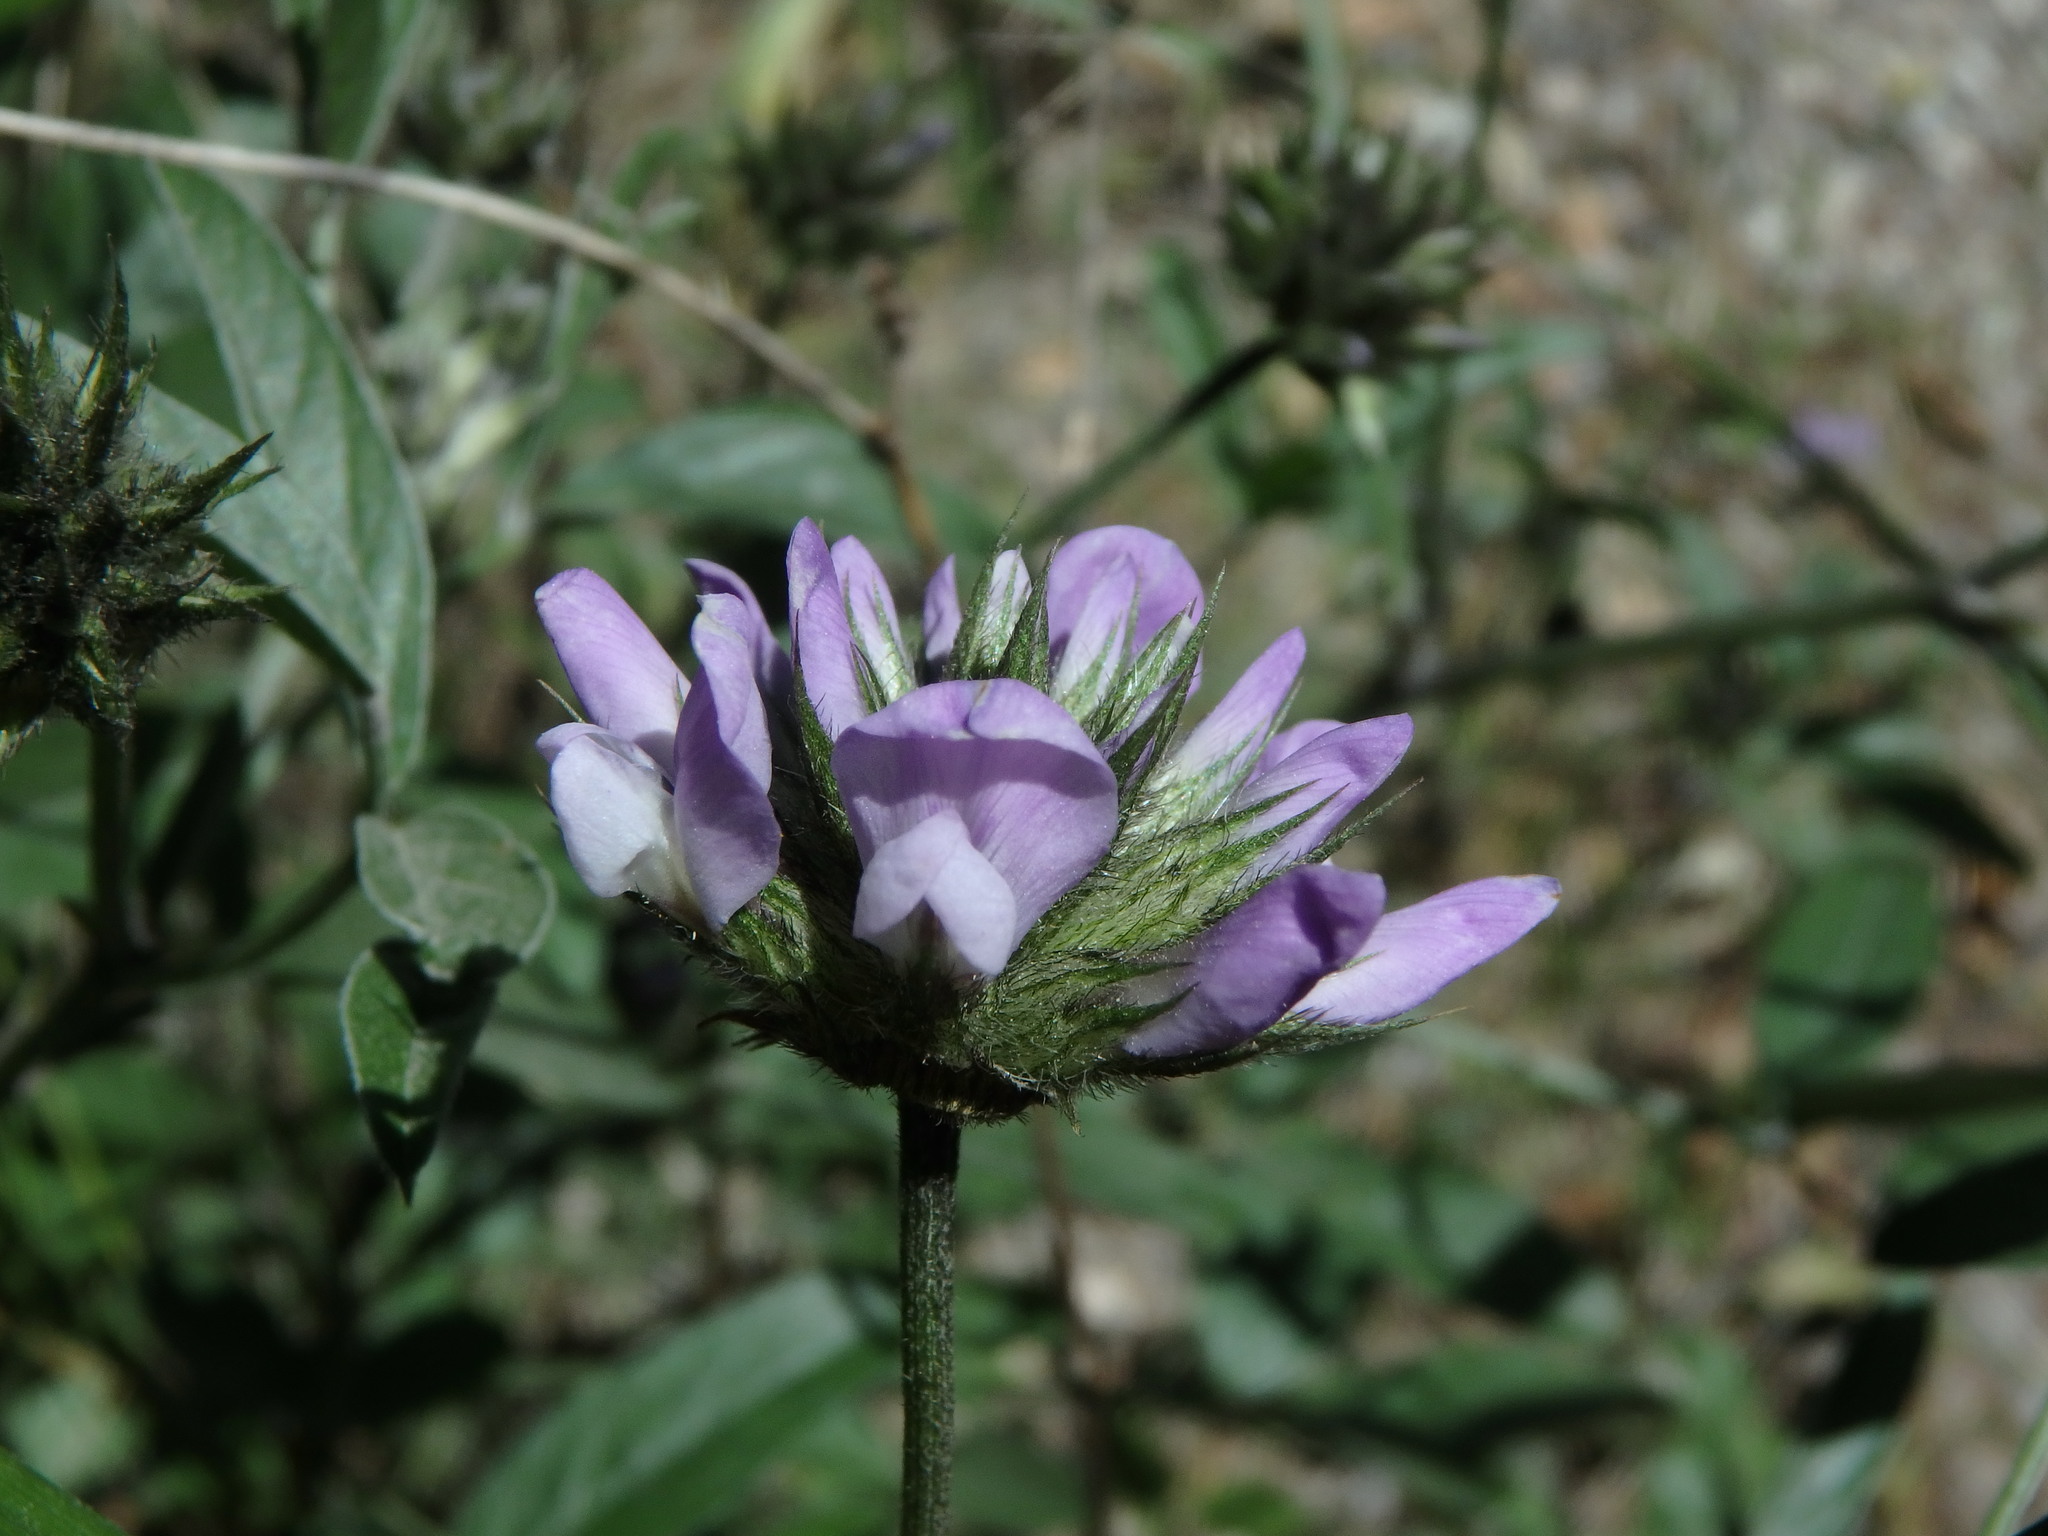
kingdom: Plantae
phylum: Tracheophyta
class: Magnoliopsida
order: Fabales
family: Fabaceae
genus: Bituminaria
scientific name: Bituminaria bituminosa
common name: Arabian pea
